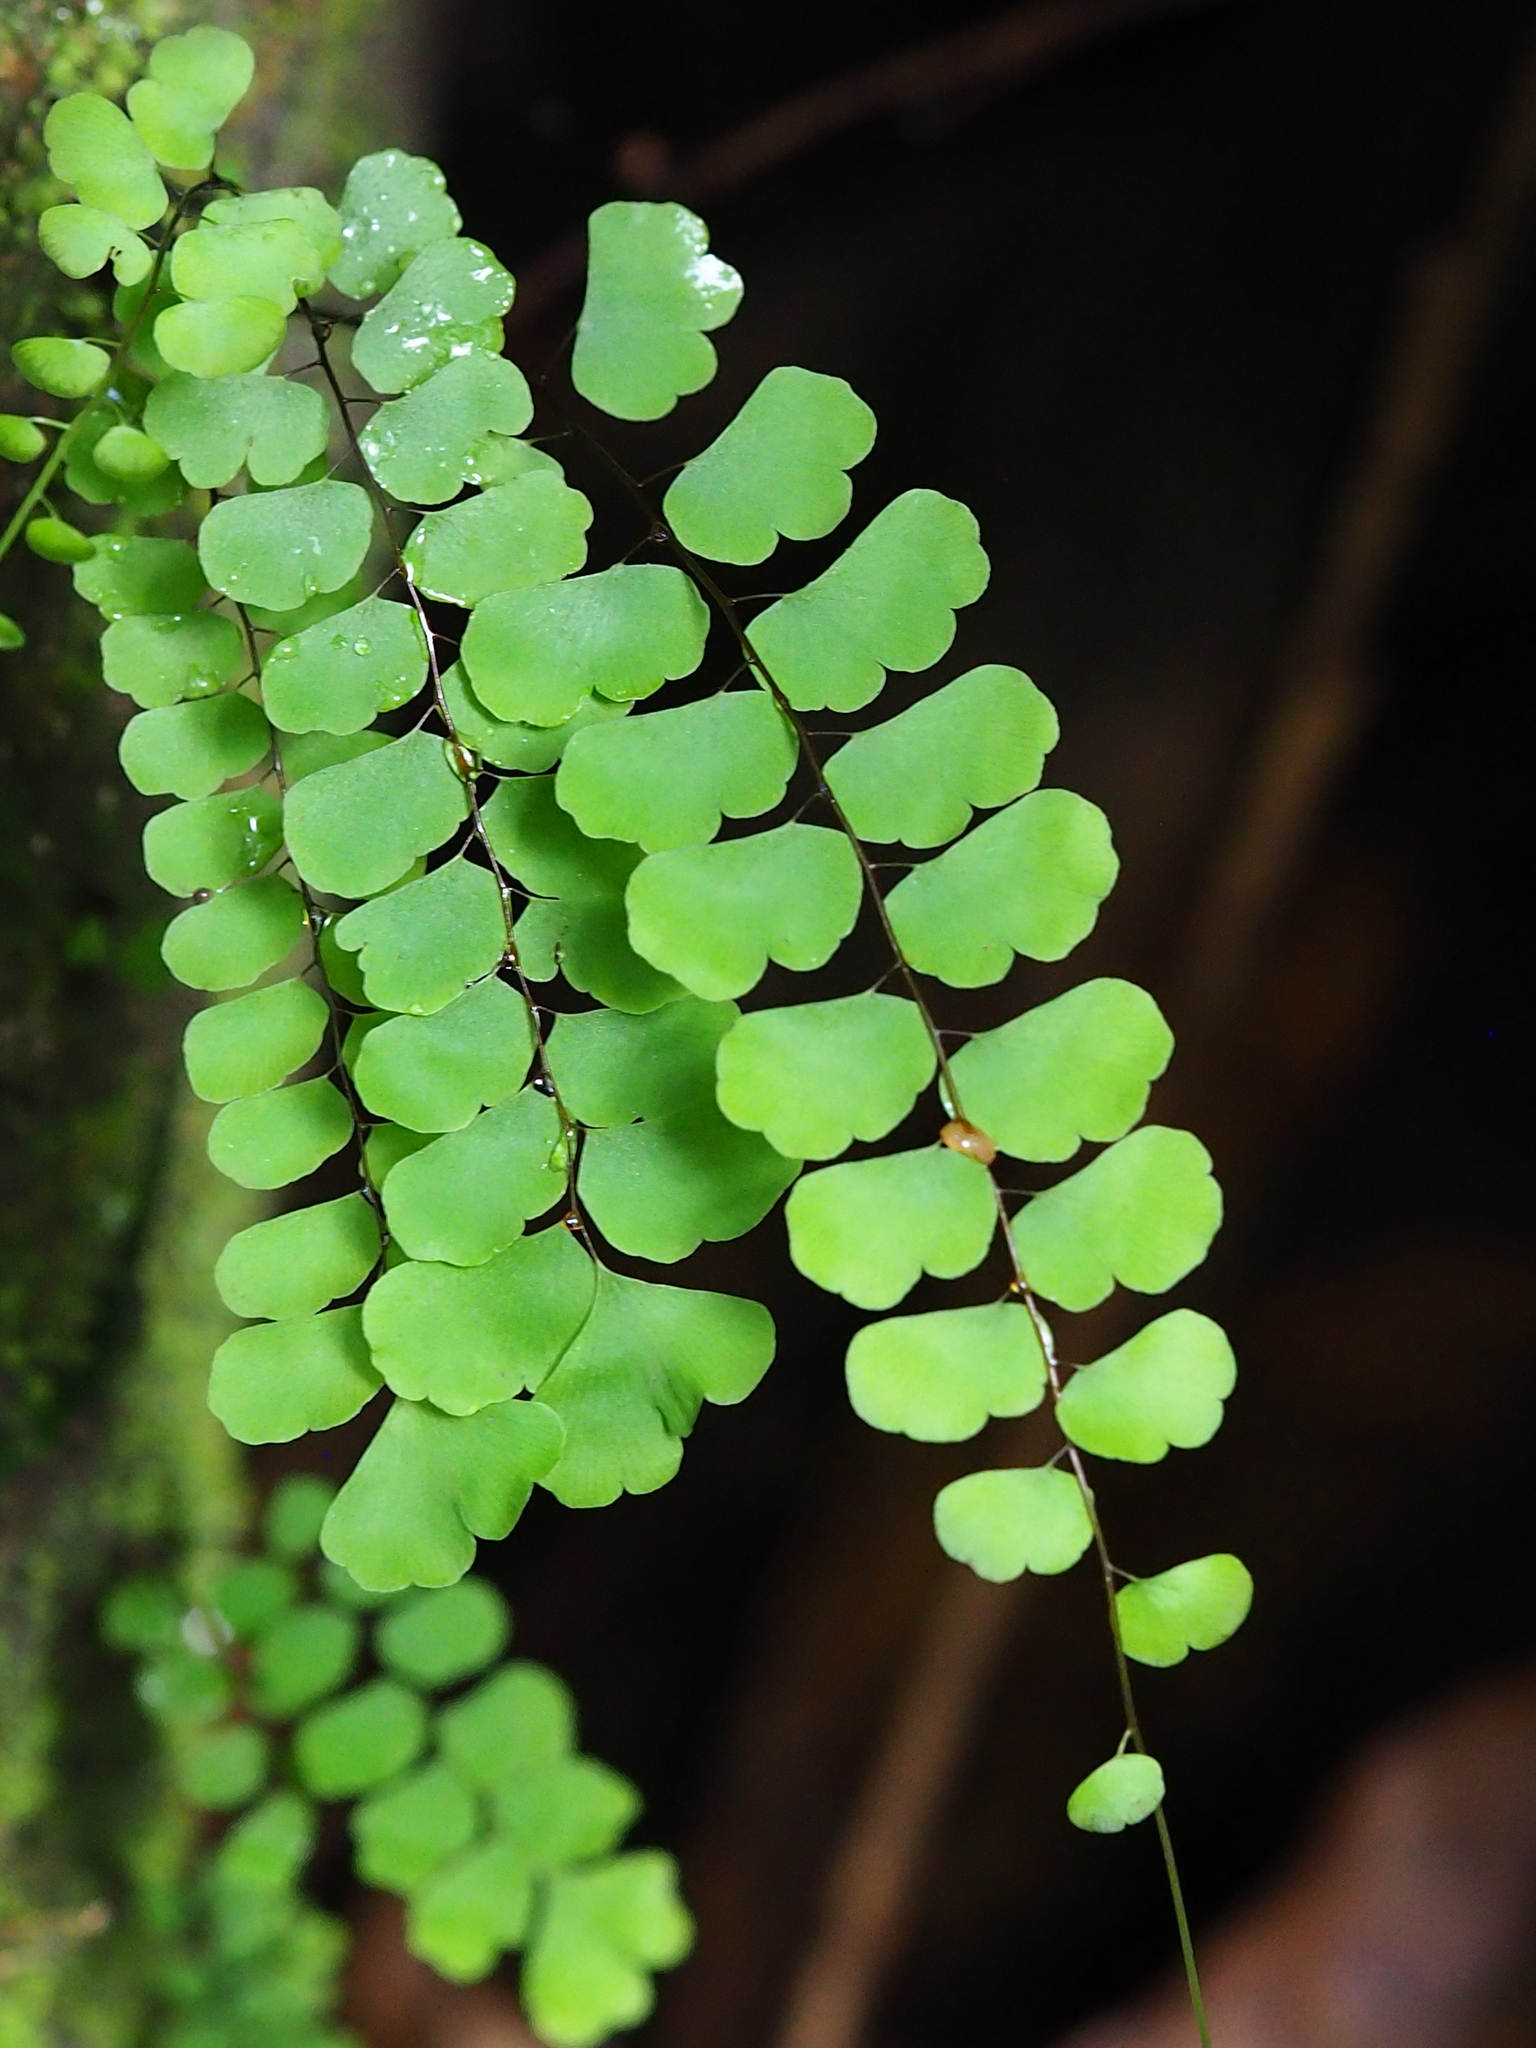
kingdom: Plantae
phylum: Tracheophyta
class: Polypodiopsida
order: Polypodiales
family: Pteridaceae
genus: Adiantum
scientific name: Adiantum philippense
